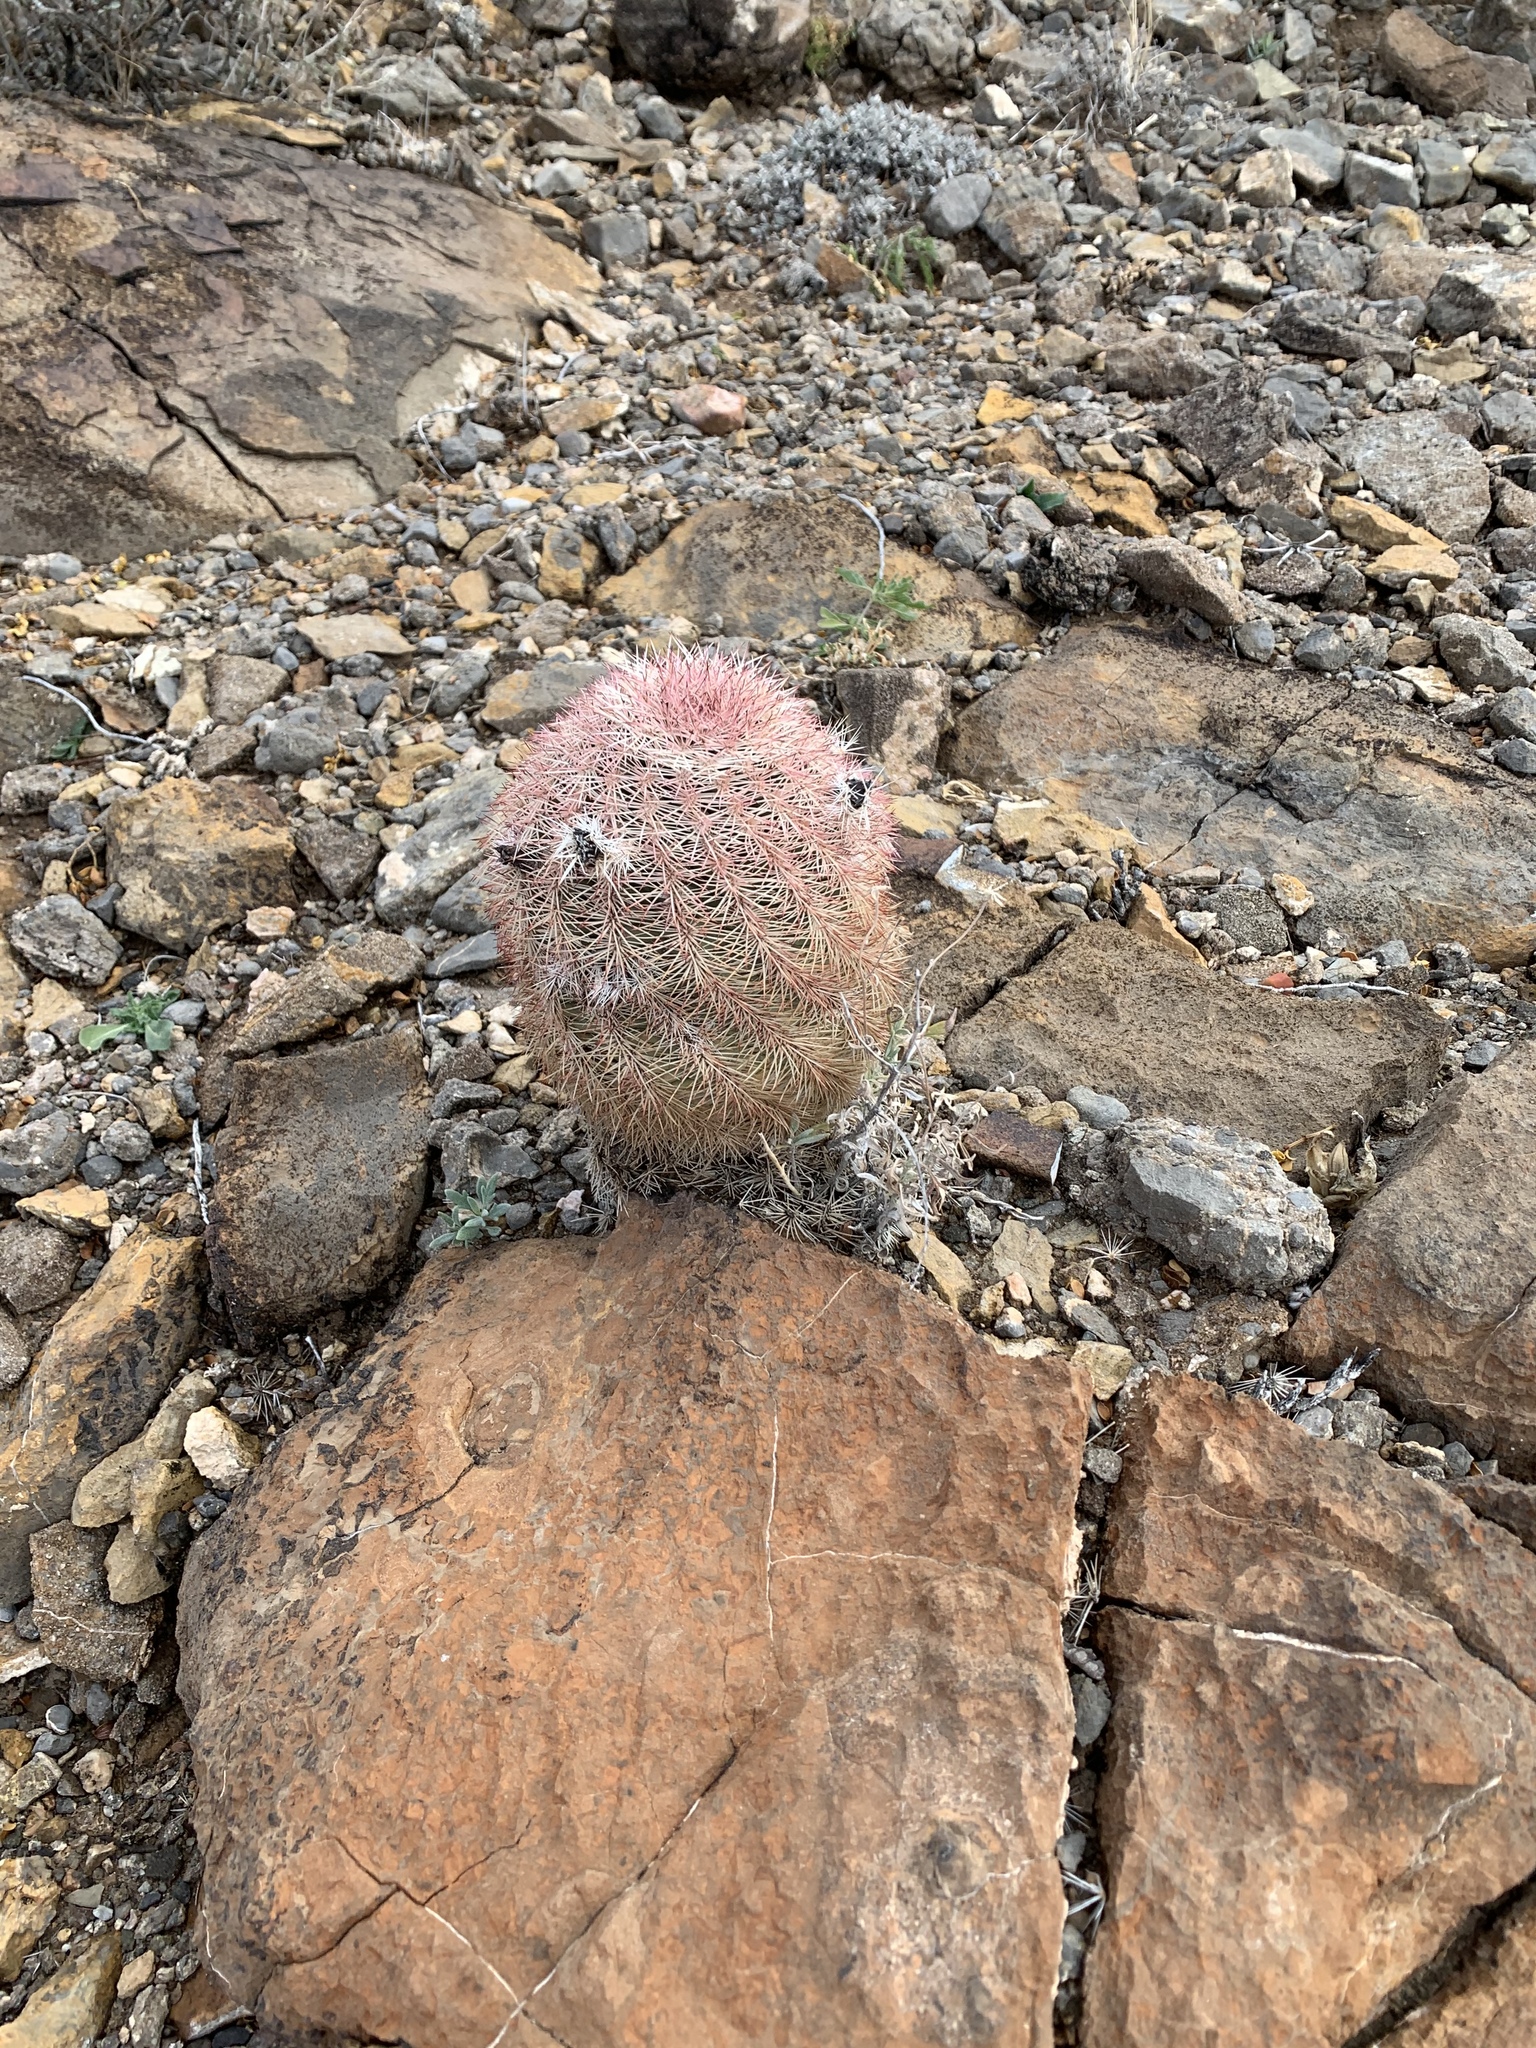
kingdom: Plantae
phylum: Tracheophyta
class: Magnoliopsida
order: Caryophyllales
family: Cactaceae
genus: Echinocereus
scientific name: Echinocereus dasyacanthus
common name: Spiny hedgehog cactus
